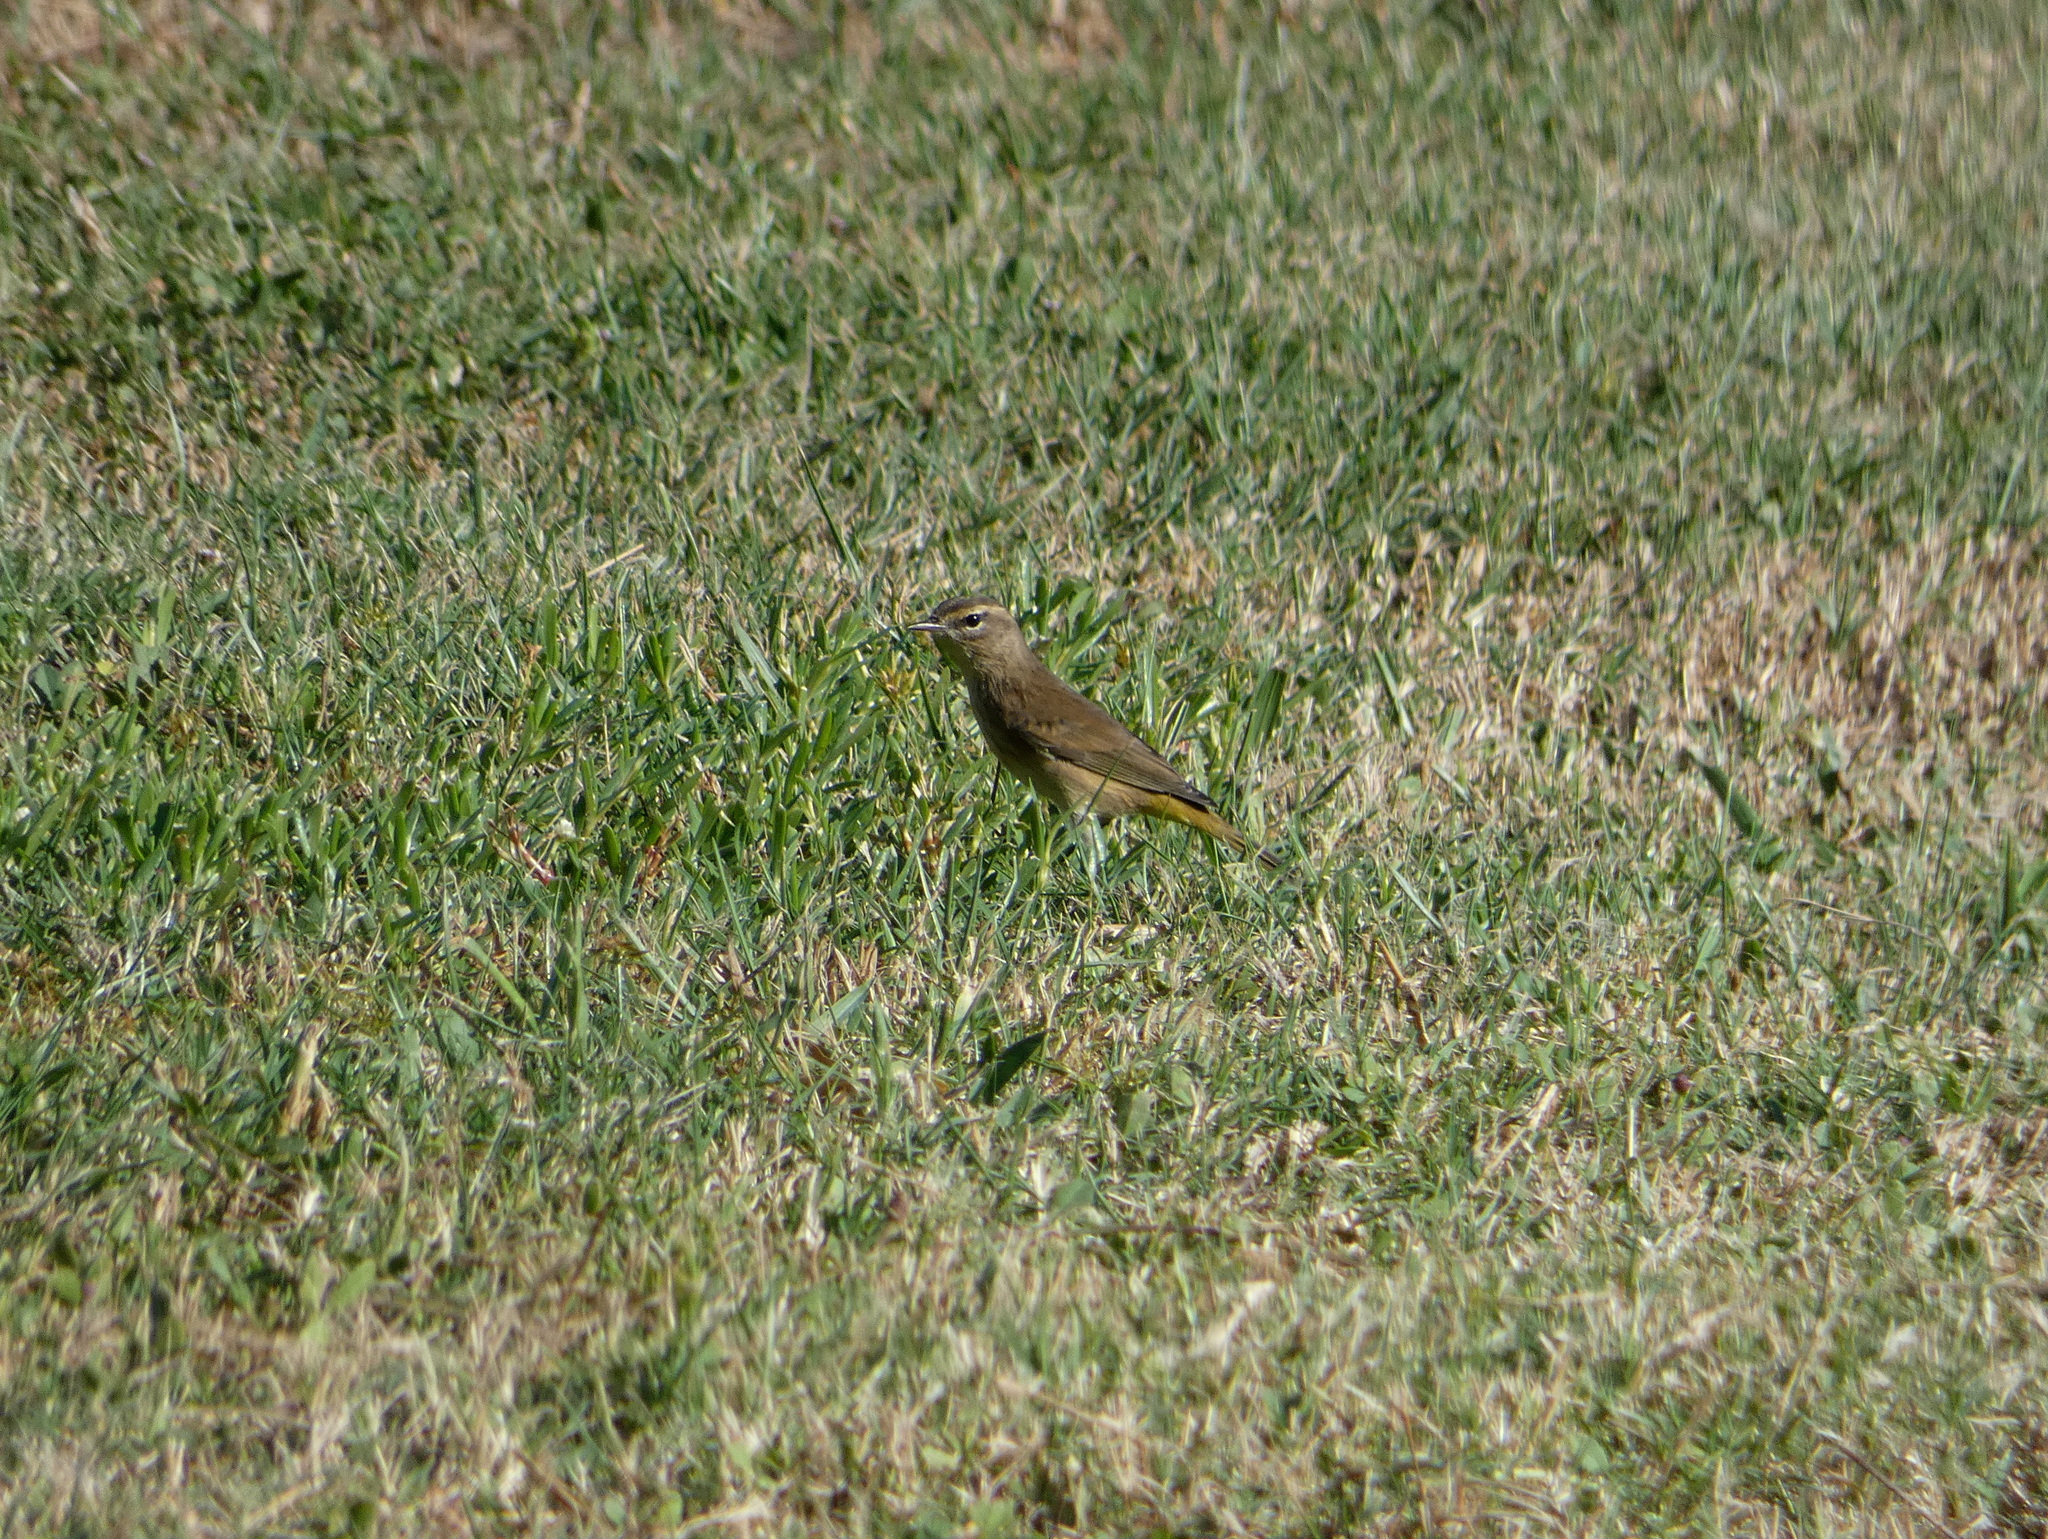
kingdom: Animalia
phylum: Chordata
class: Aves
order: Passeriformes
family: Parulidae
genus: Setophaga
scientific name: Setophaga palmarum
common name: Palm warbler
